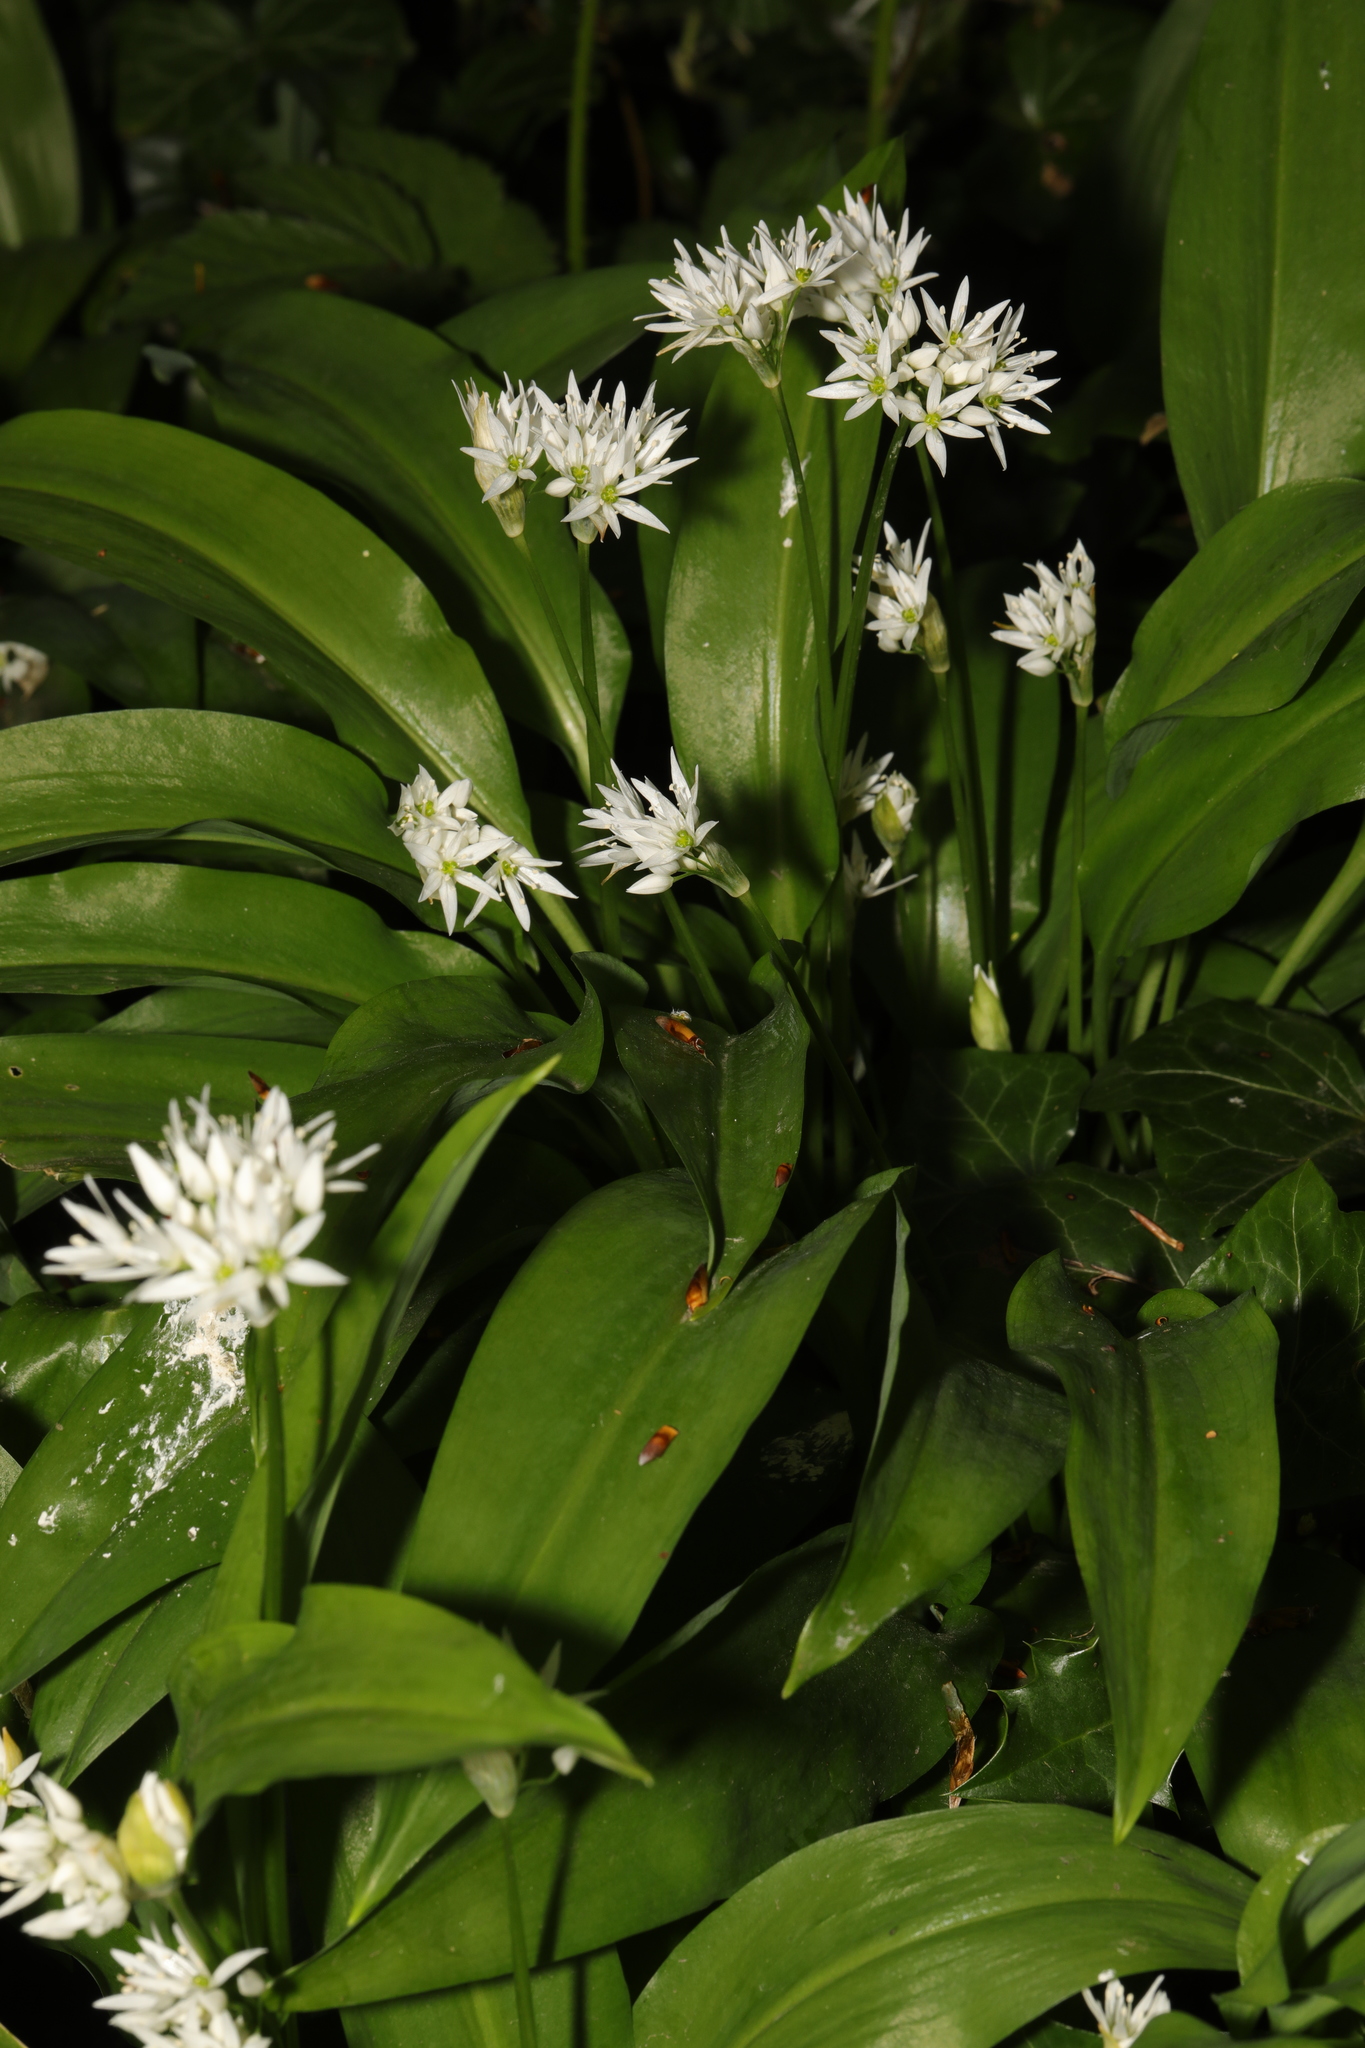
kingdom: Plantae
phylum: Tracheophyta
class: Liliopsida
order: Asparagales
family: Amaryllidaceae
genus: Allium
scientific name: Allium ursinum
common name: Ramsons
